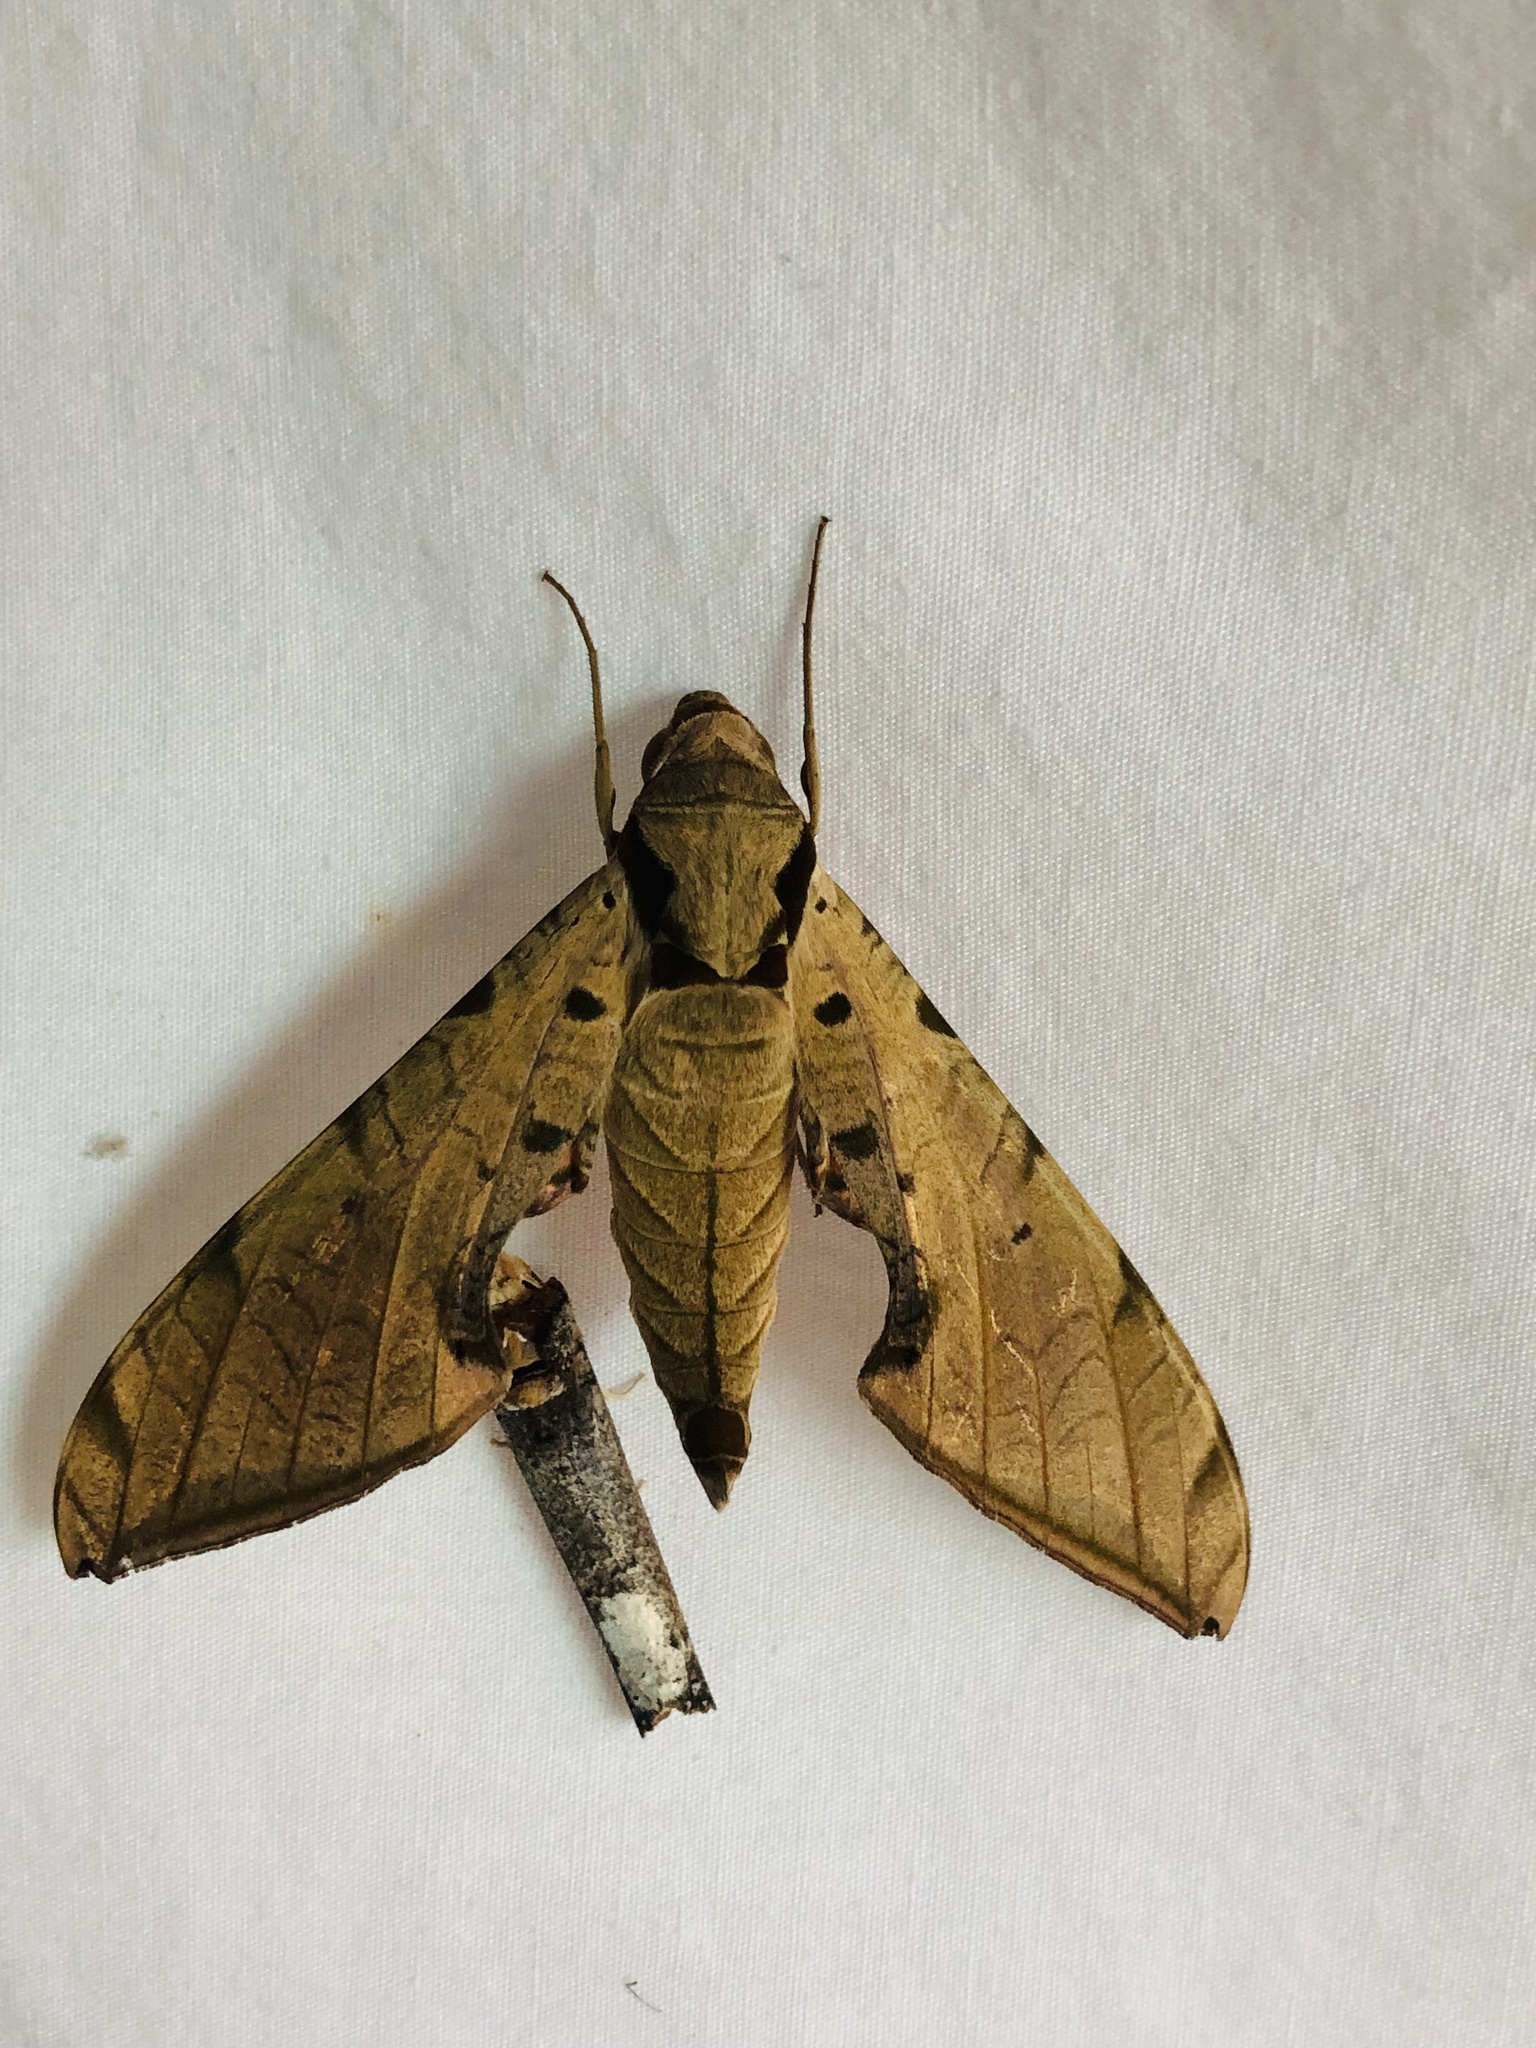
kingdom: Animalia
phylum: Arthropoda
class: Insecta
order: Lepidoptera
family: Sphingidae
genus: Protambulyx
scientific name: Protambulyx strigilis
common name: Streaked sphinx
